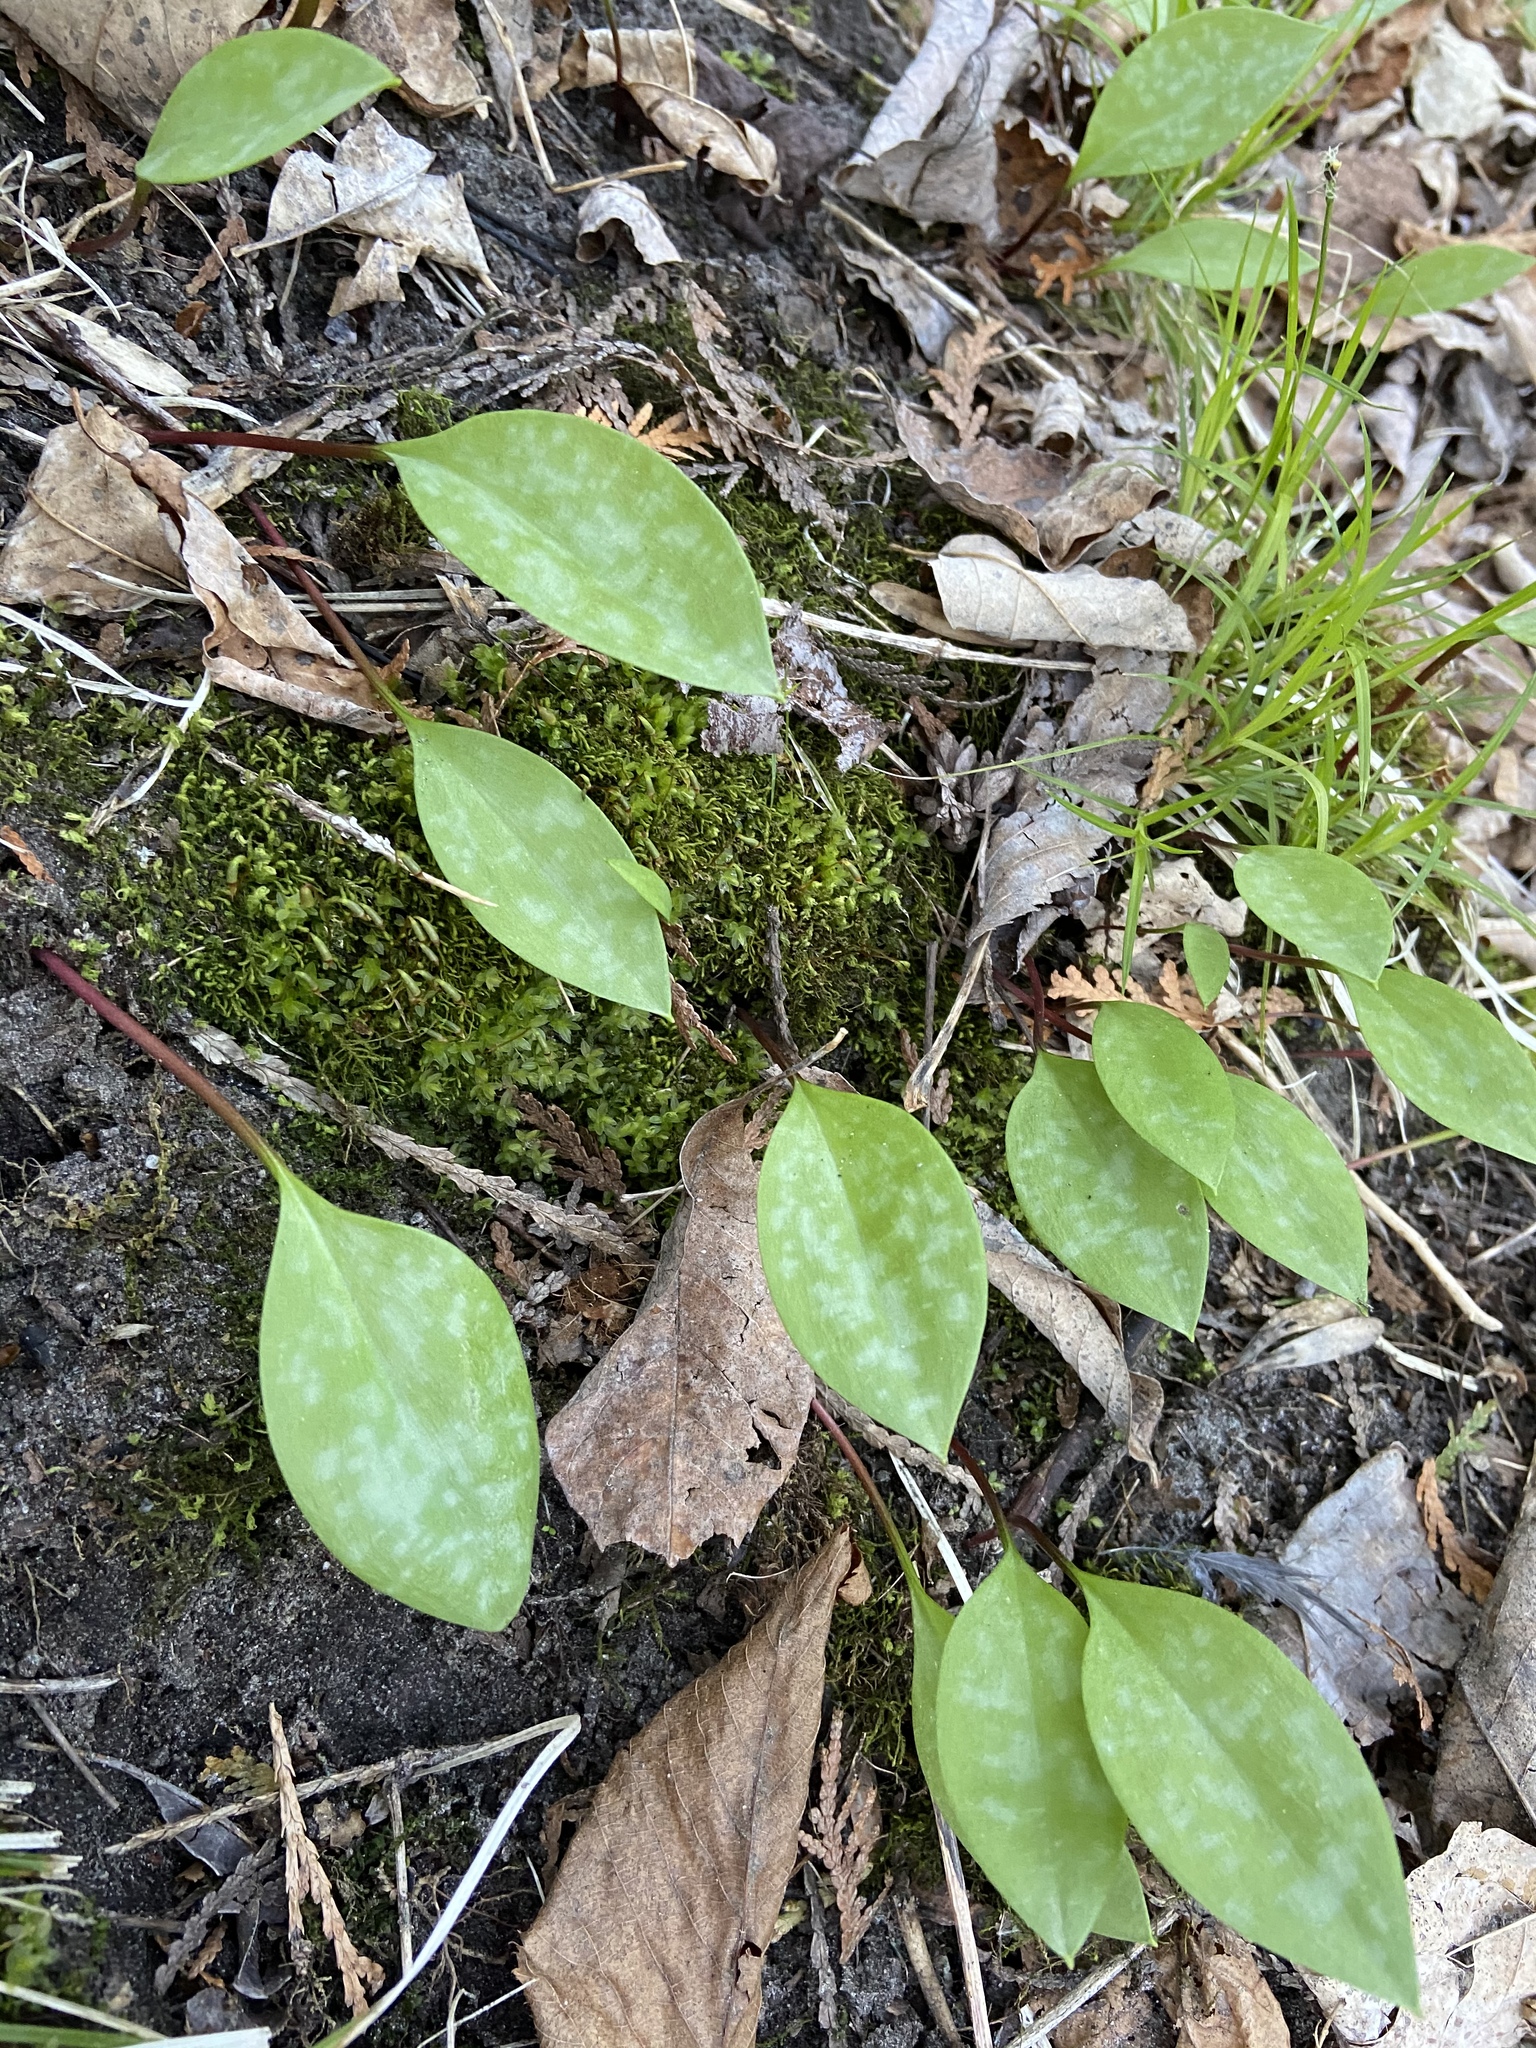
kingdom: Plantae
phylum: Tracheophyta
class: Liliopsida
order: Liliales
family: Liliaceae
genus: Erythronium
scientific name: Erythronium americanum
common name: Yellow adder's-tongue
